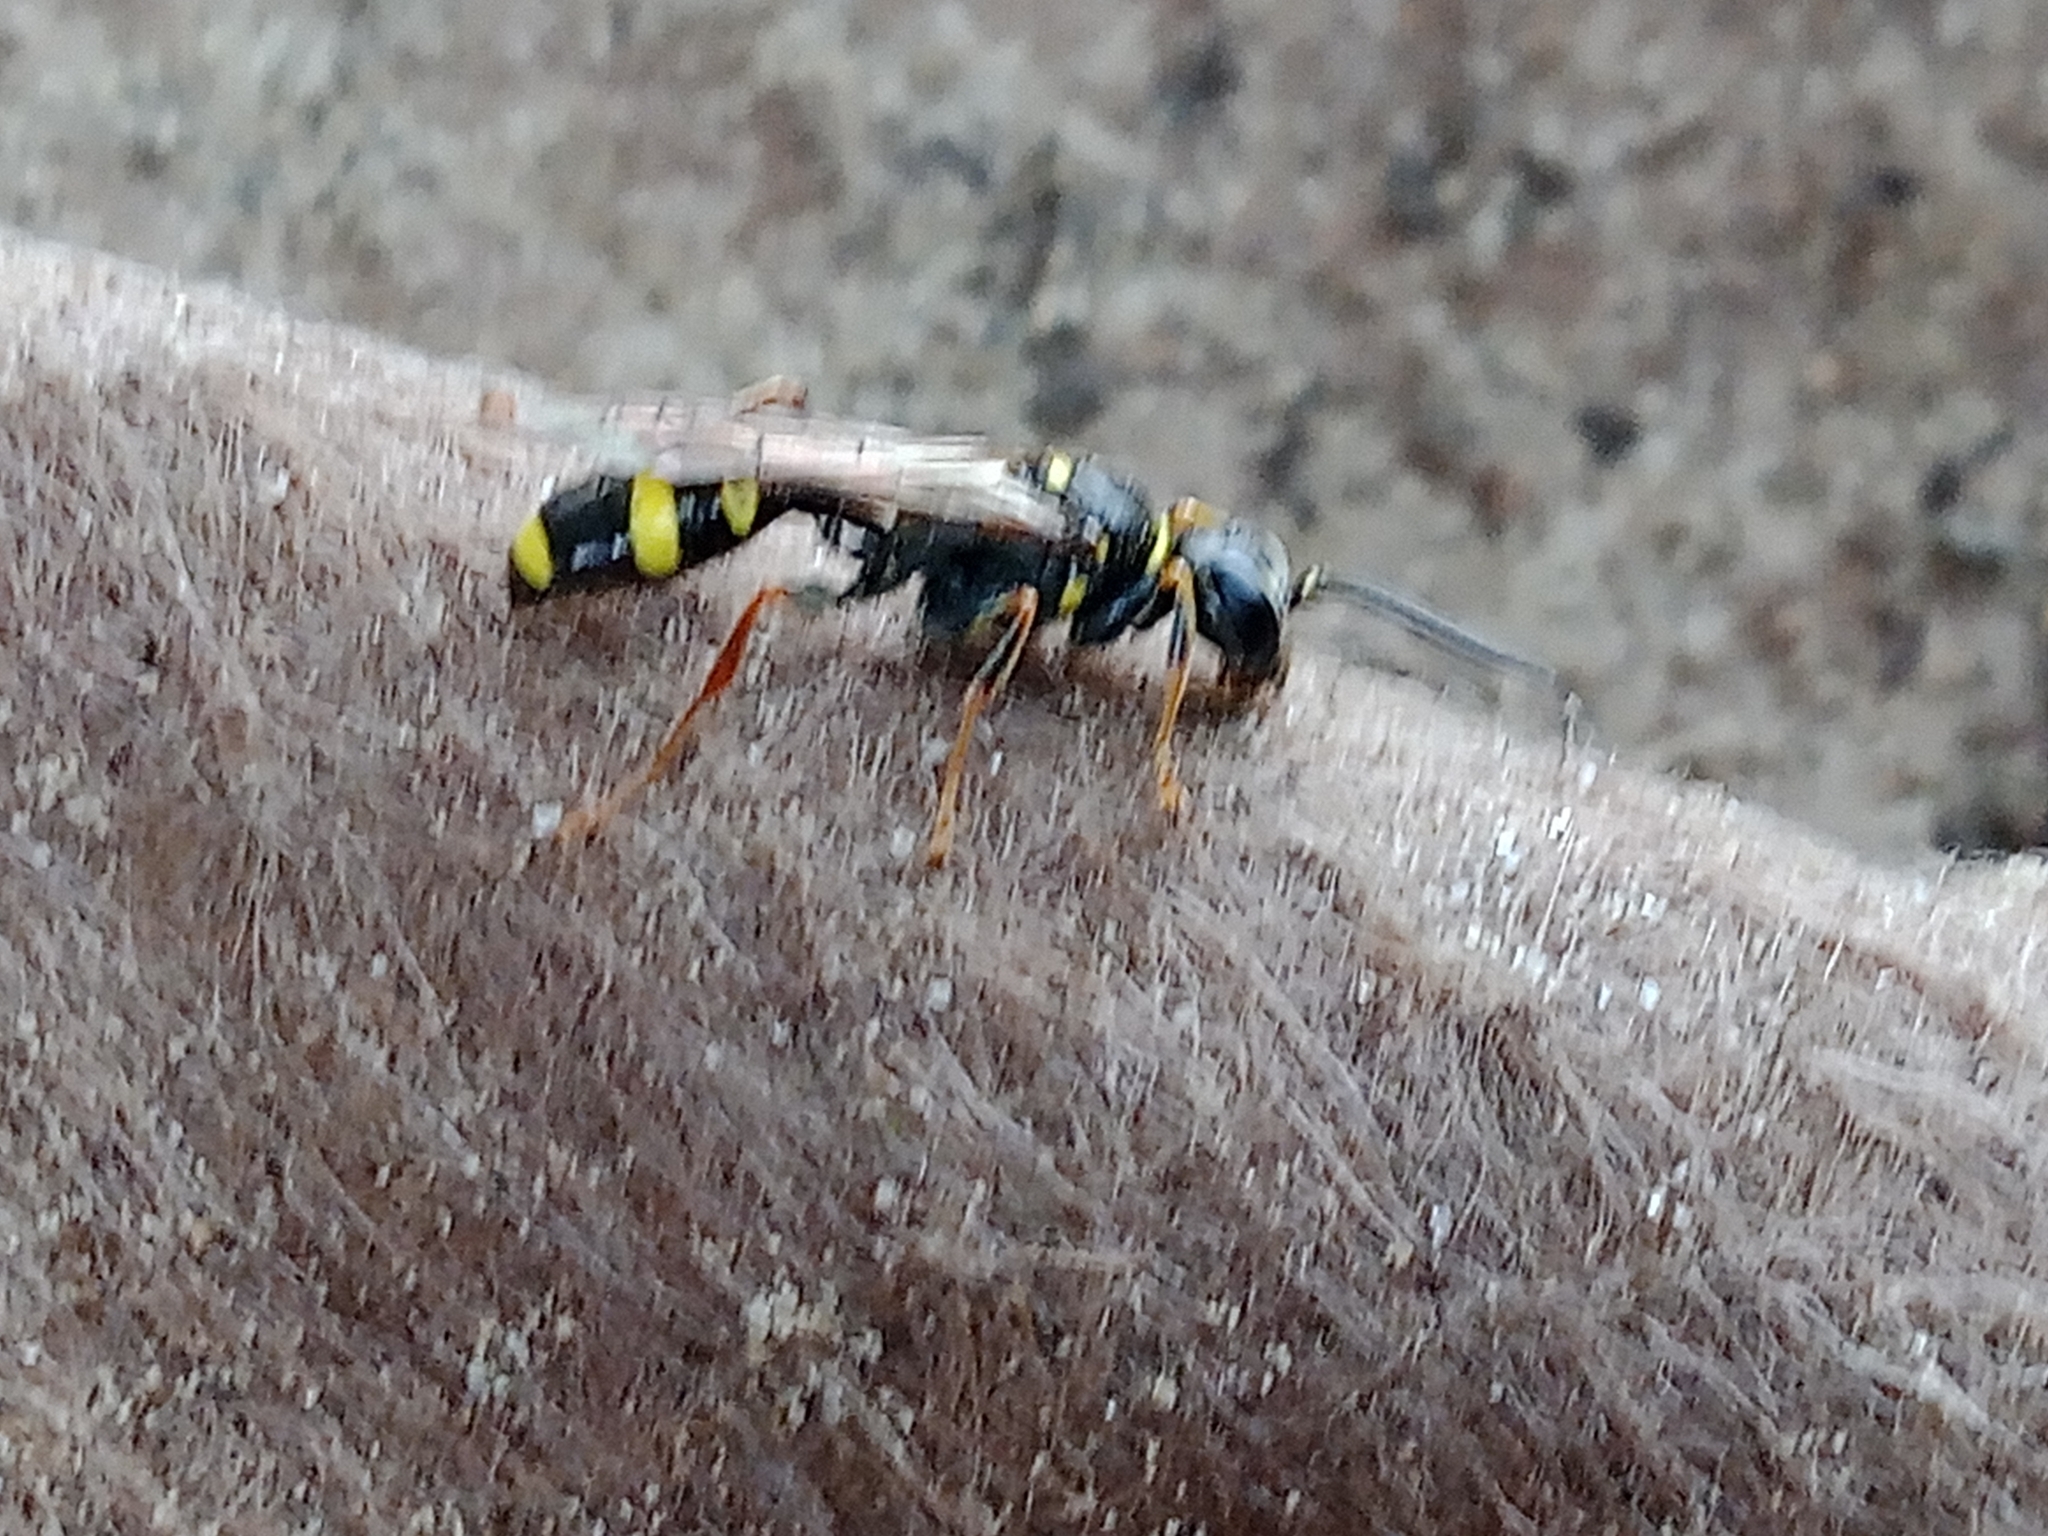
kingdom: Animalia
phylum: Arthropoda
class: Insecta
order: Hymenoptera
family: Crabronidae
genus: Mellinus
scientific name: Mellinus arvensis
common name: Field digger wasp
